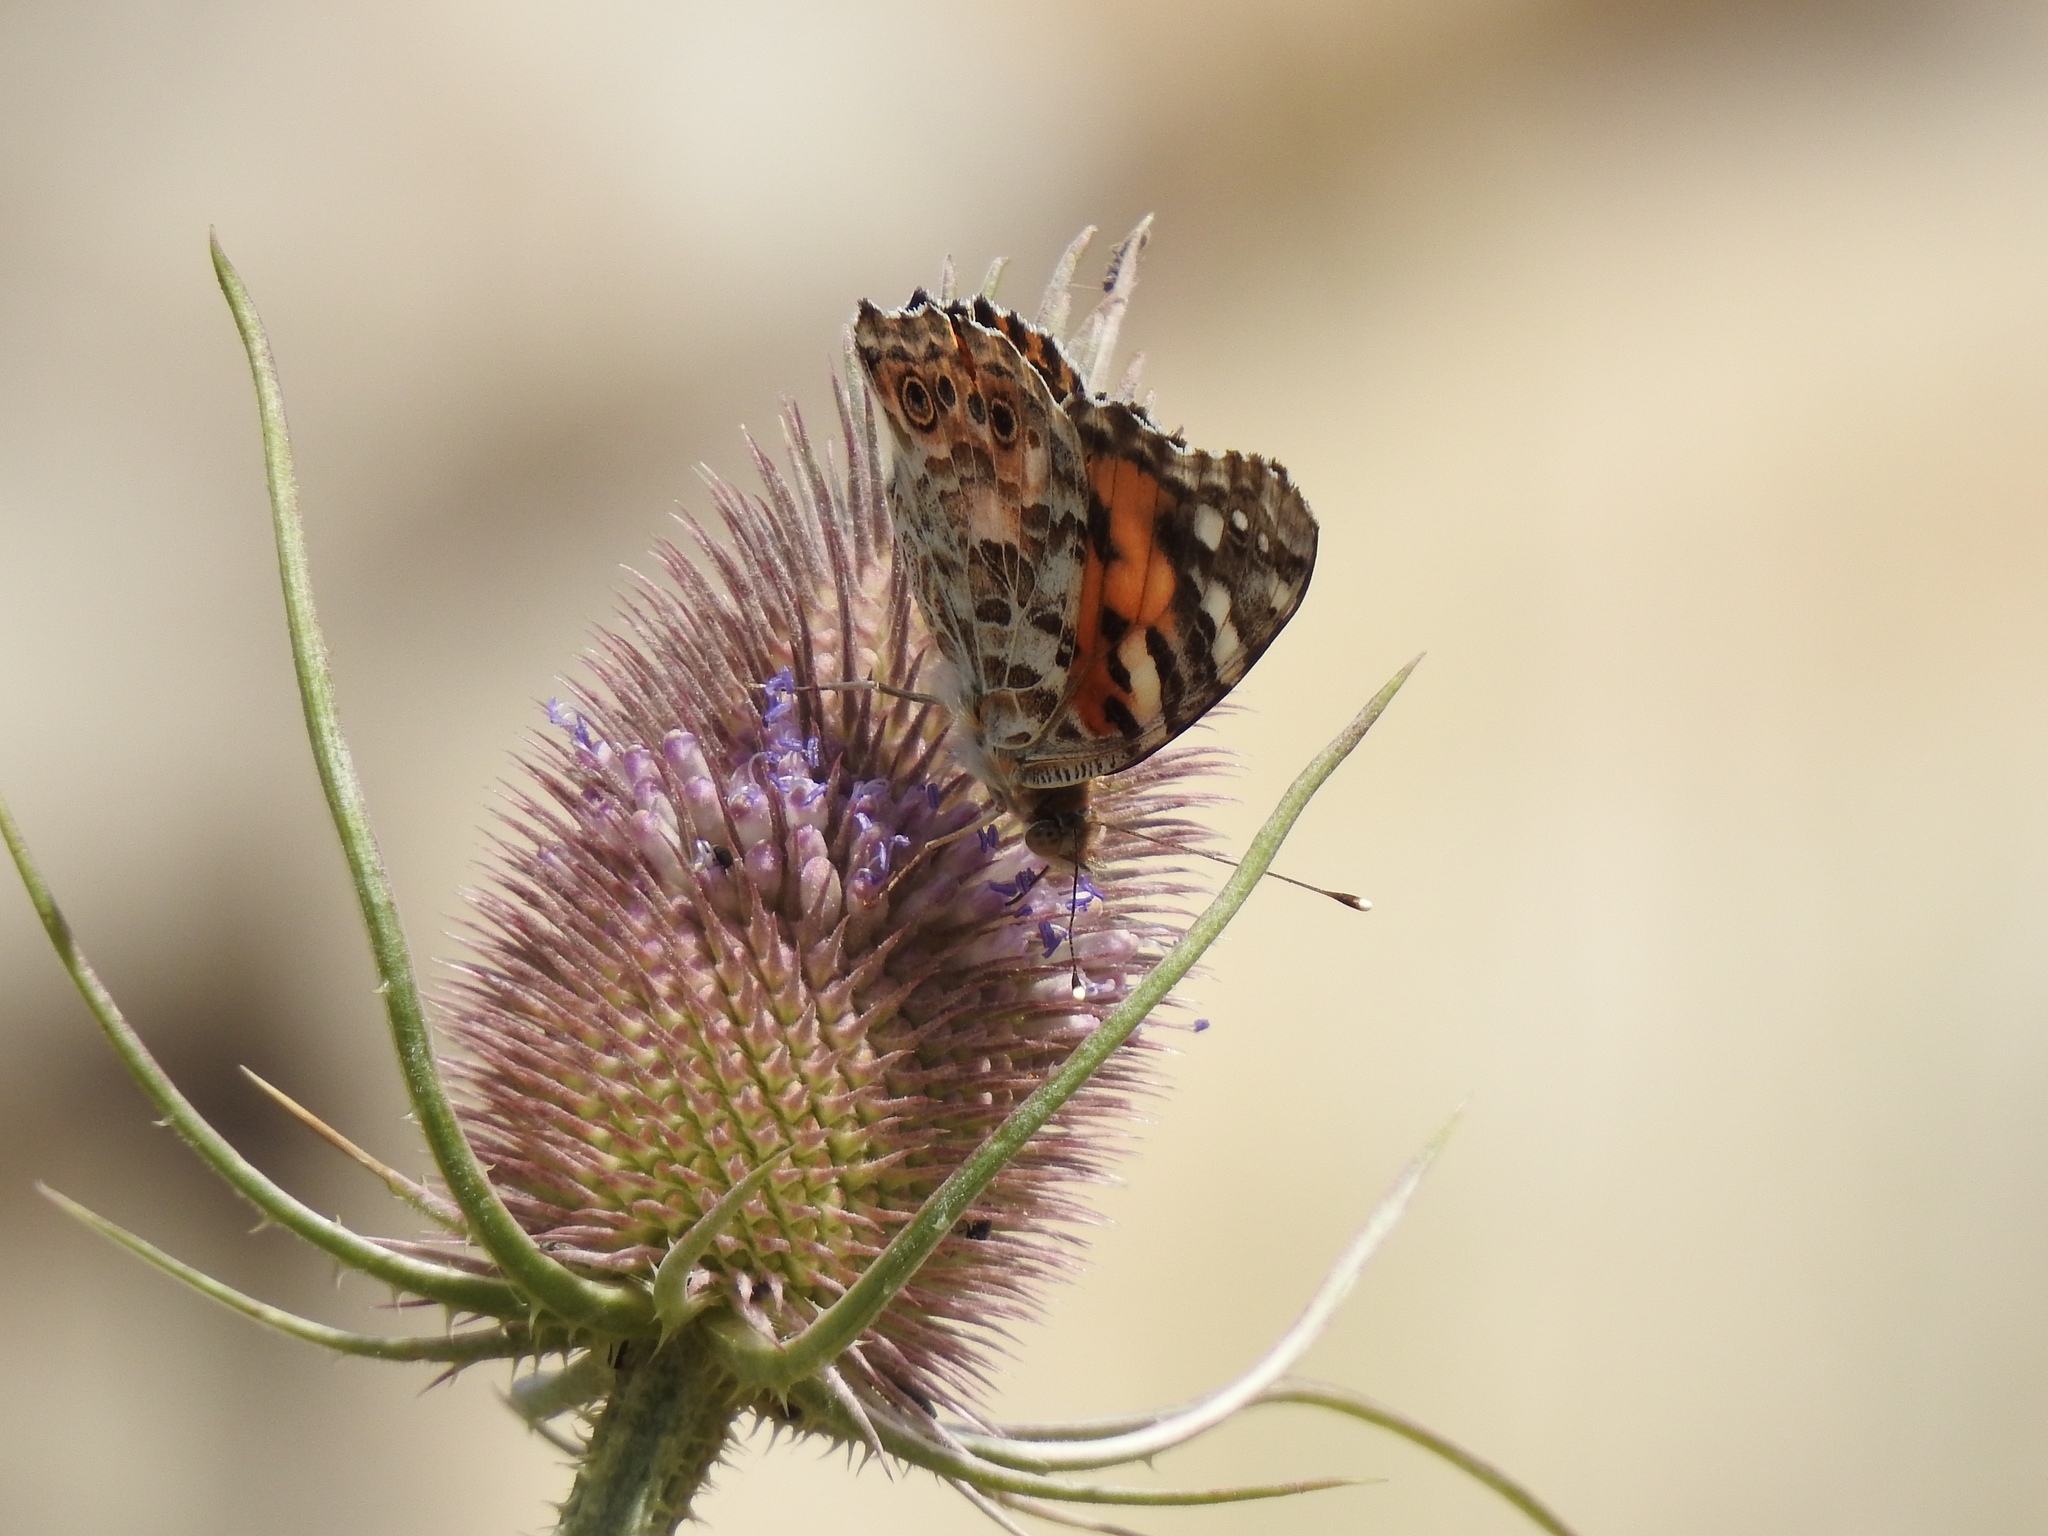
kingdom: Animalia
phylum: Arthropoda
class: Insecta
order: Lepidoptera
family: Lycaenidae
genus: Strymon
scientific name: Strymon melinus
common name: Gray hairstreak
